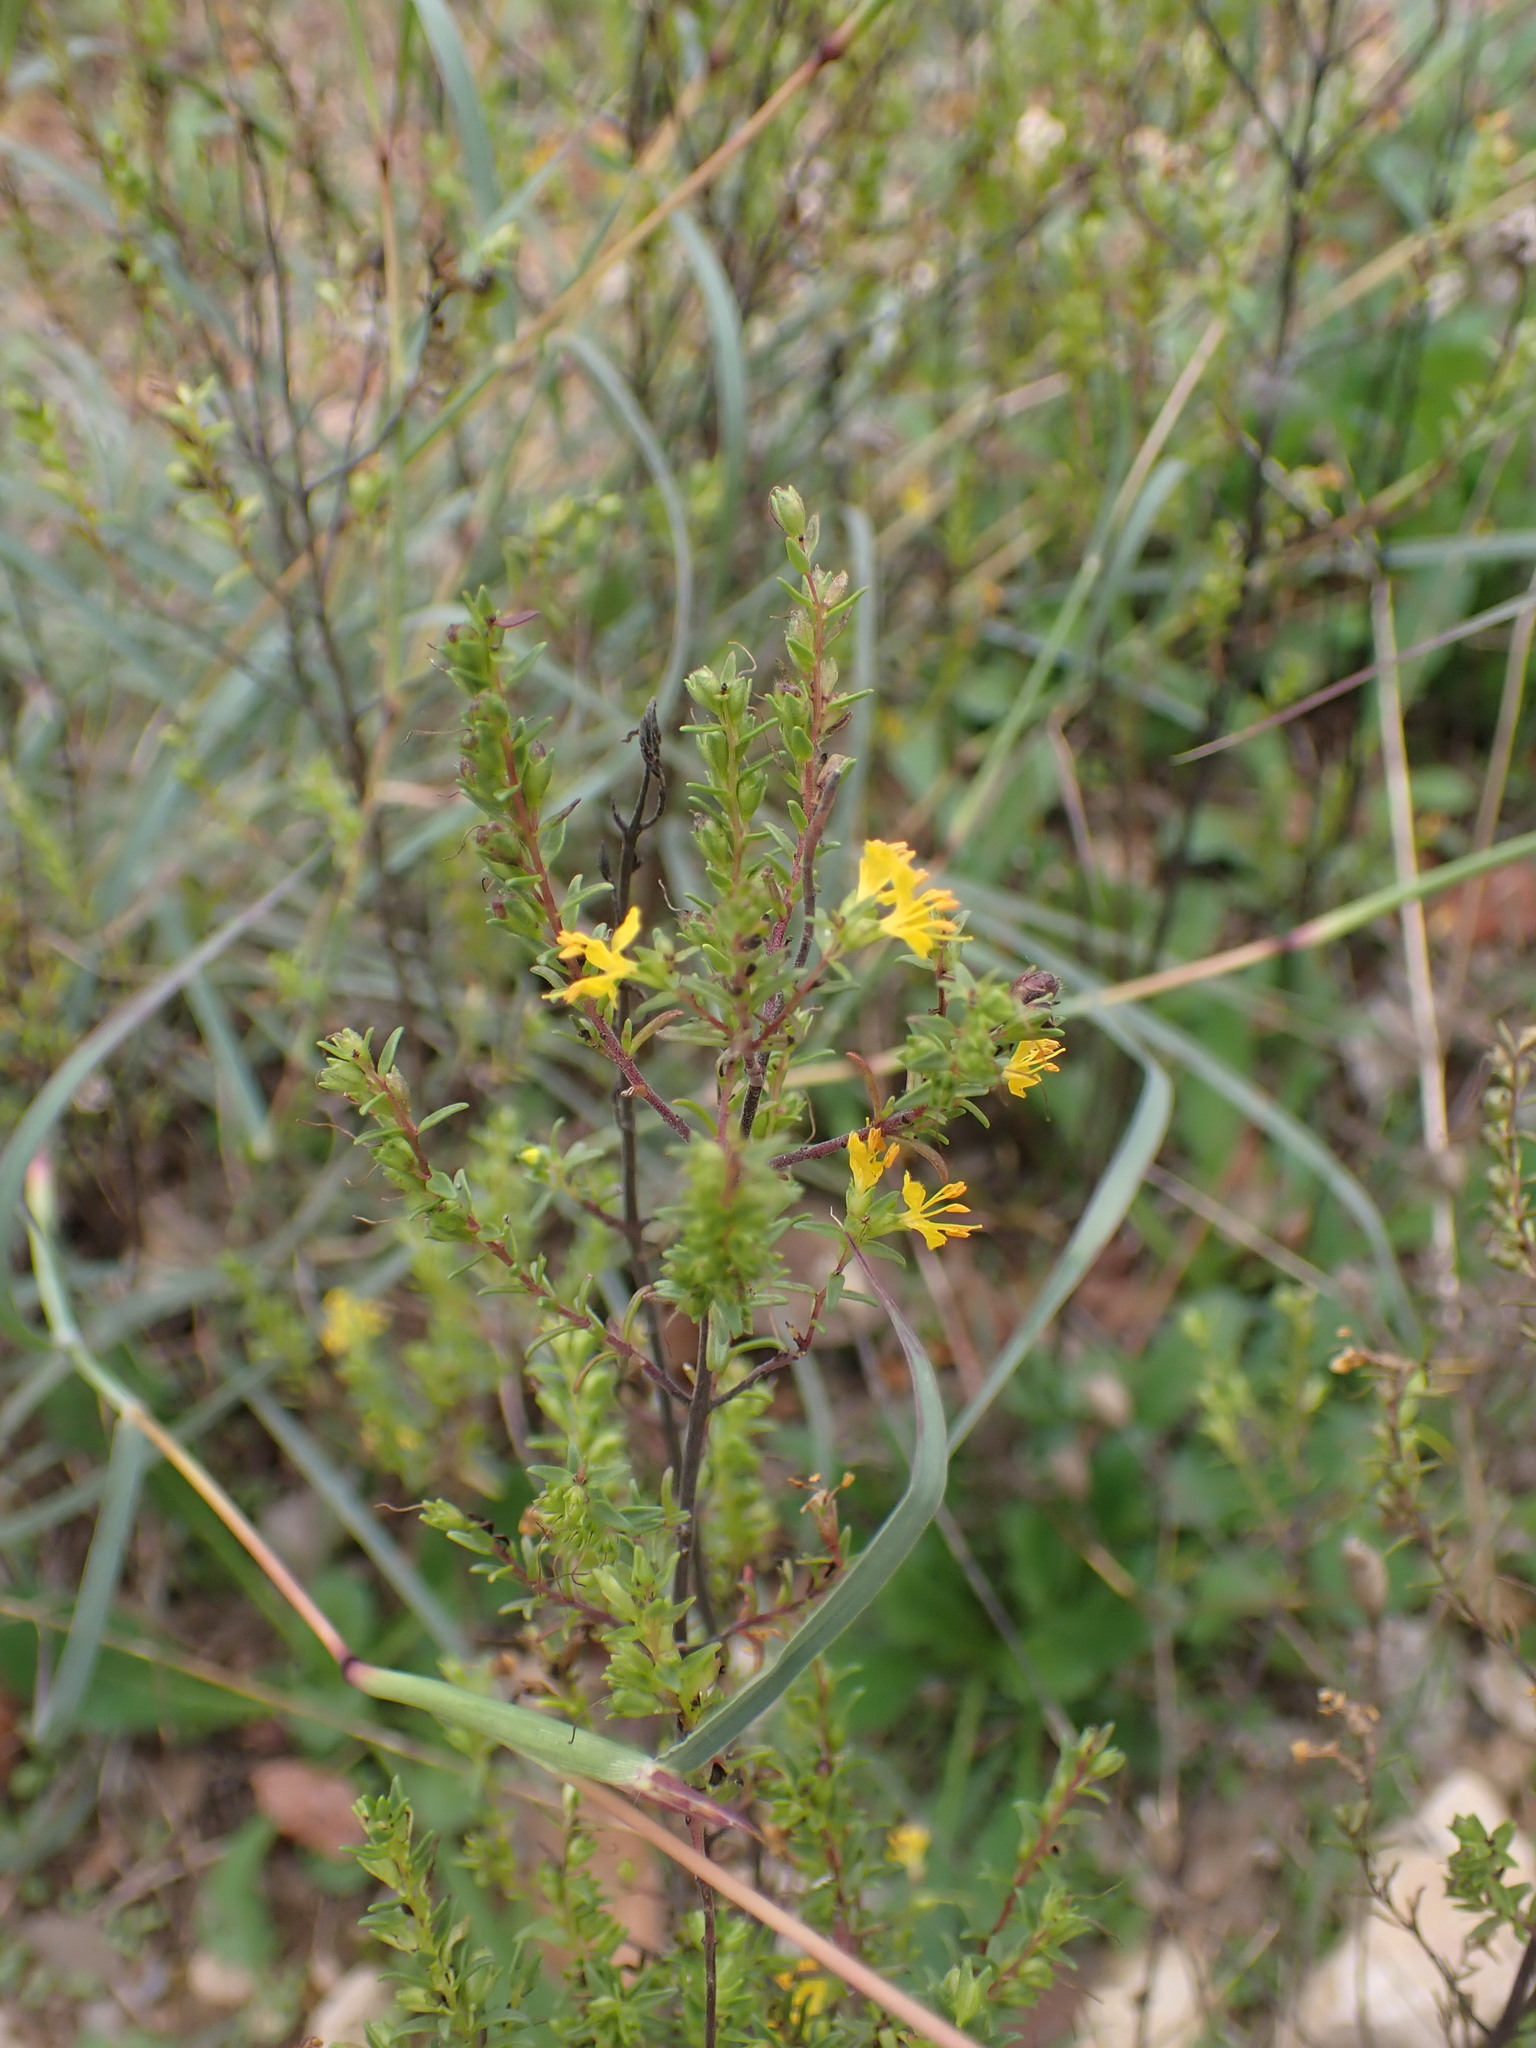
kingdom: Plantae
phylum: Tracheophyta
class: Magnoliopsida
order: Lamiales
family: Orobanchaceae
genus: Odontites
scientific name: Odontites luteus
